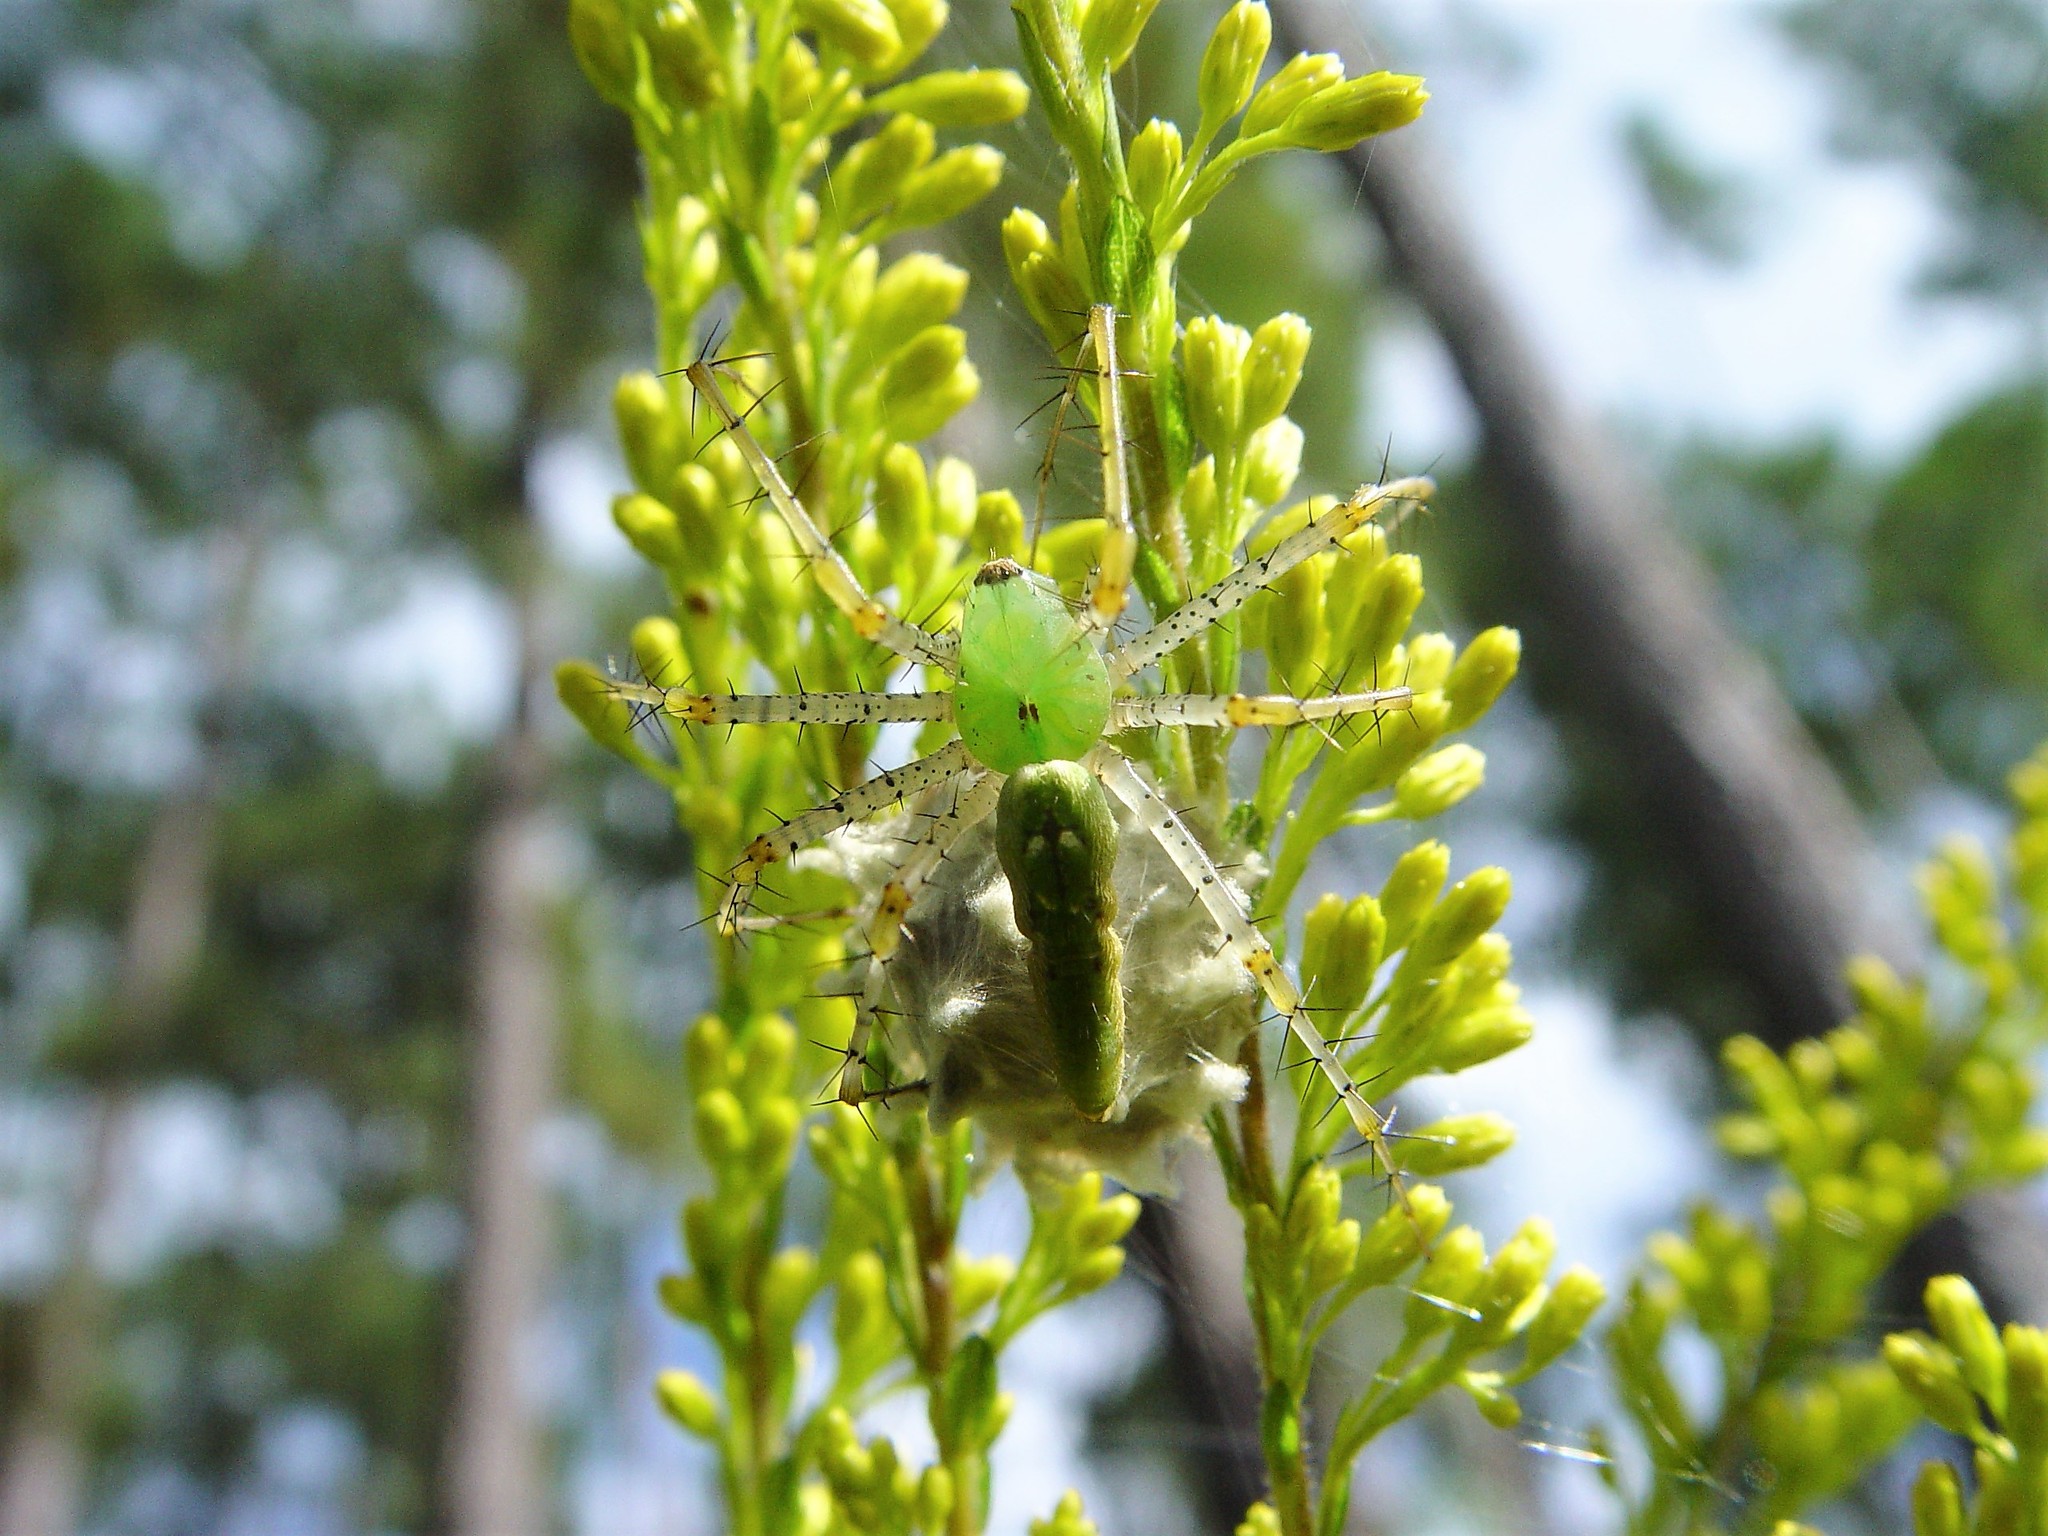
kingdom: Animalia
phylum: Arthropoda
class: Arachnida
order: Araneae
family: Oxyopidae
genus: Peucetia
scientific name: Peucetia viridans
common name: Lynx spiders
